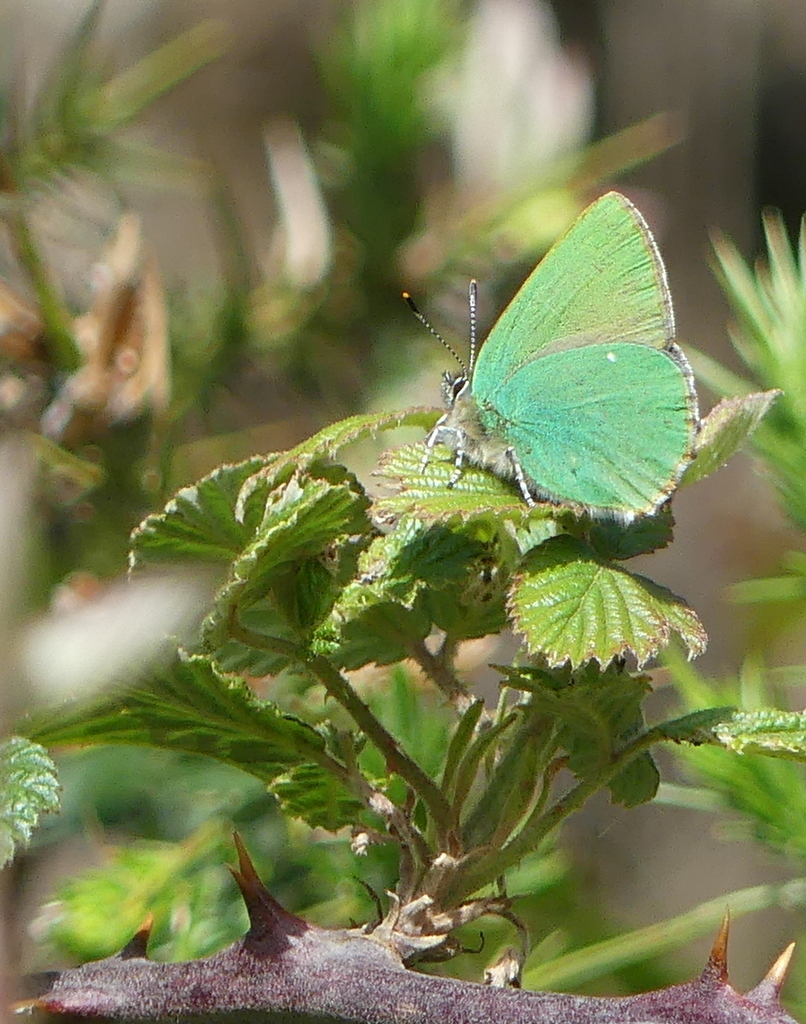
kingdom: Animalia
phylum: Arthropoda
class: Insecta
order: Lepidoptera
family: Lycaenidae
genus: Callophrys
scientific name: Callophrys rubi
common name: Green hairstreak
